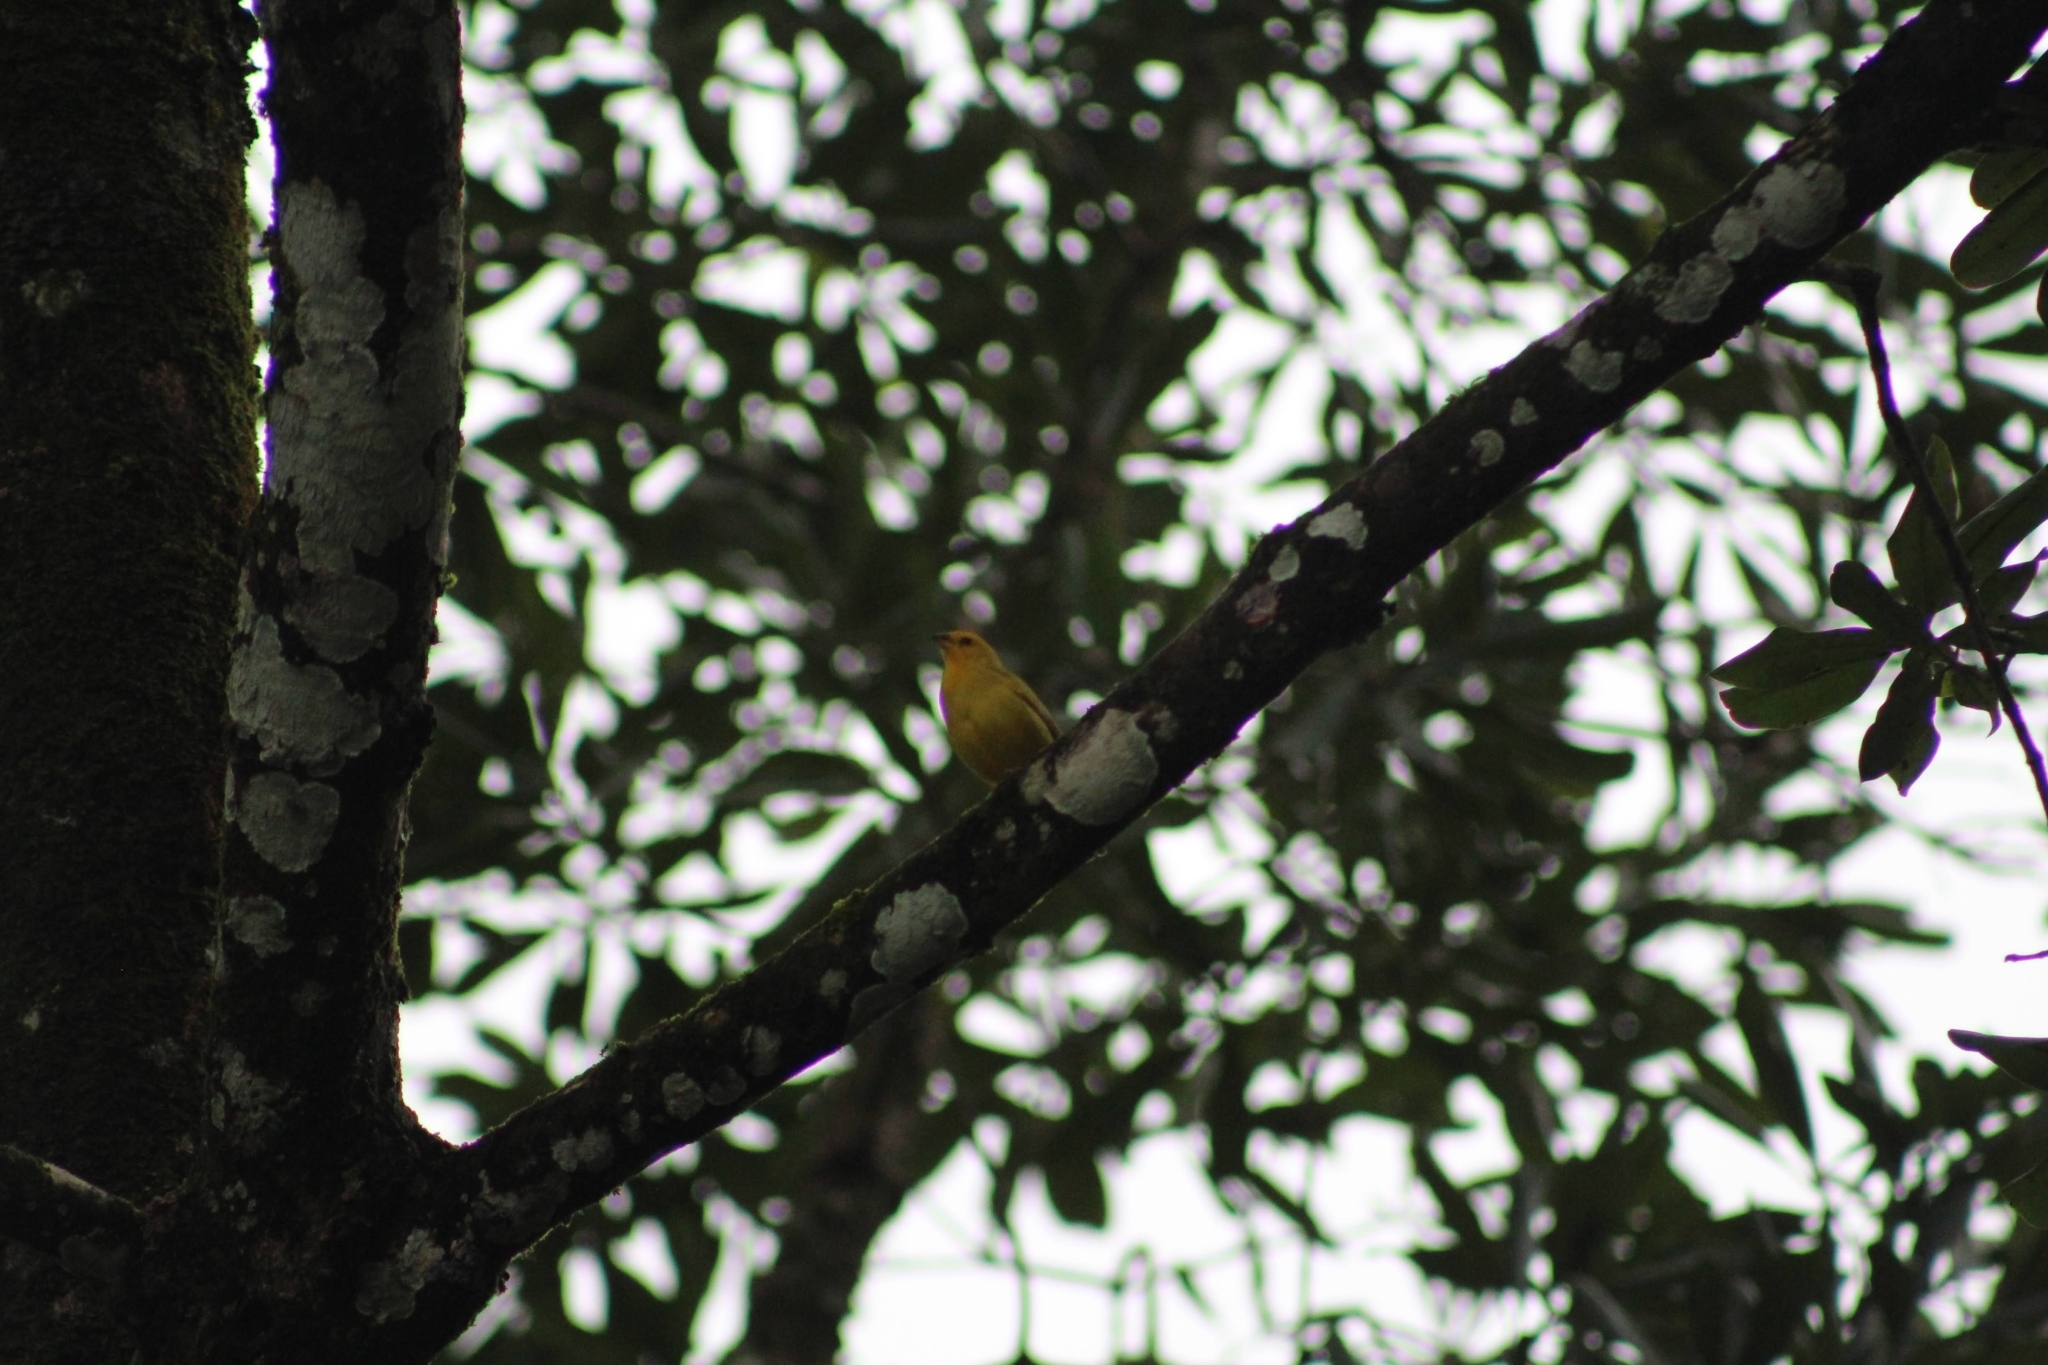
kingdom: Animalia
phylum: Chordata
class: Aves
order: Passeriformes
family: Thraupidae
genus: Sicalis
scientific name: Sicalis flaveola
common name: Saffron finch
